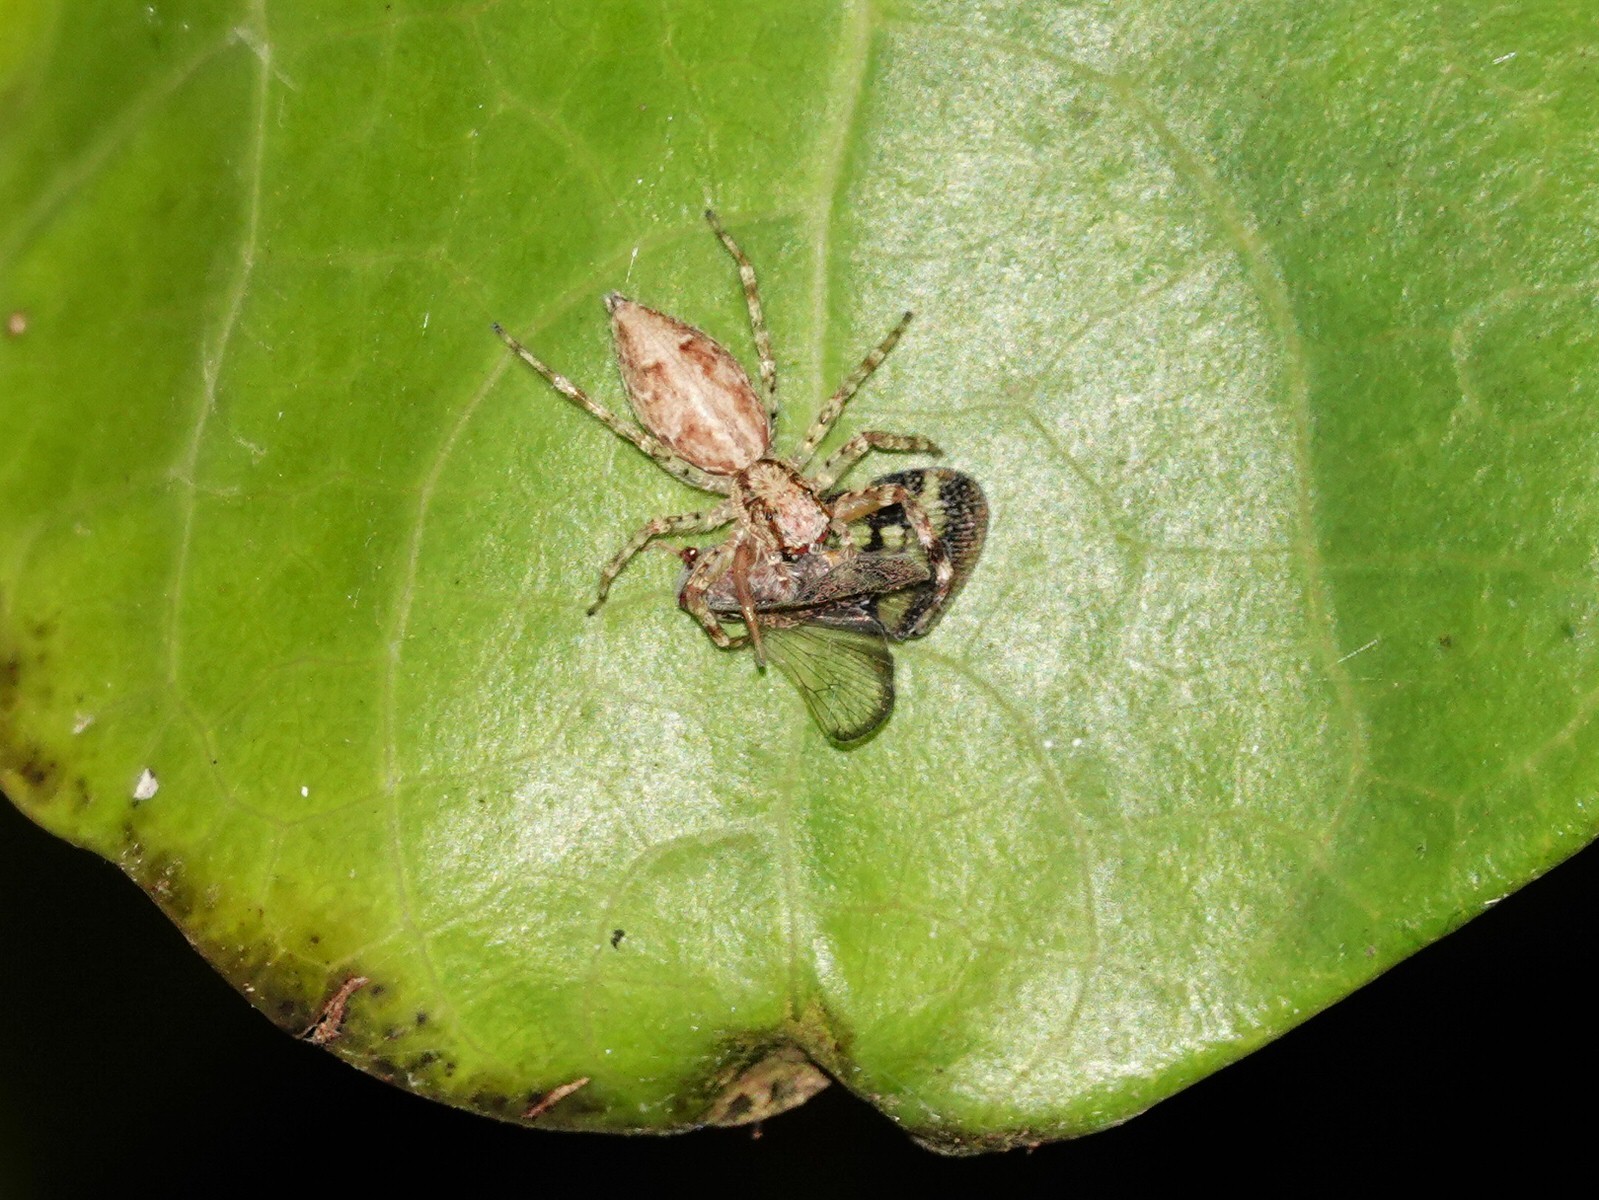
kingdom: Animalia
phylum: Arthropoda
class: Arachnida
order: Araneae
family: Salticidae
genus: Helpis
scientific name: Helpis minitabunda
